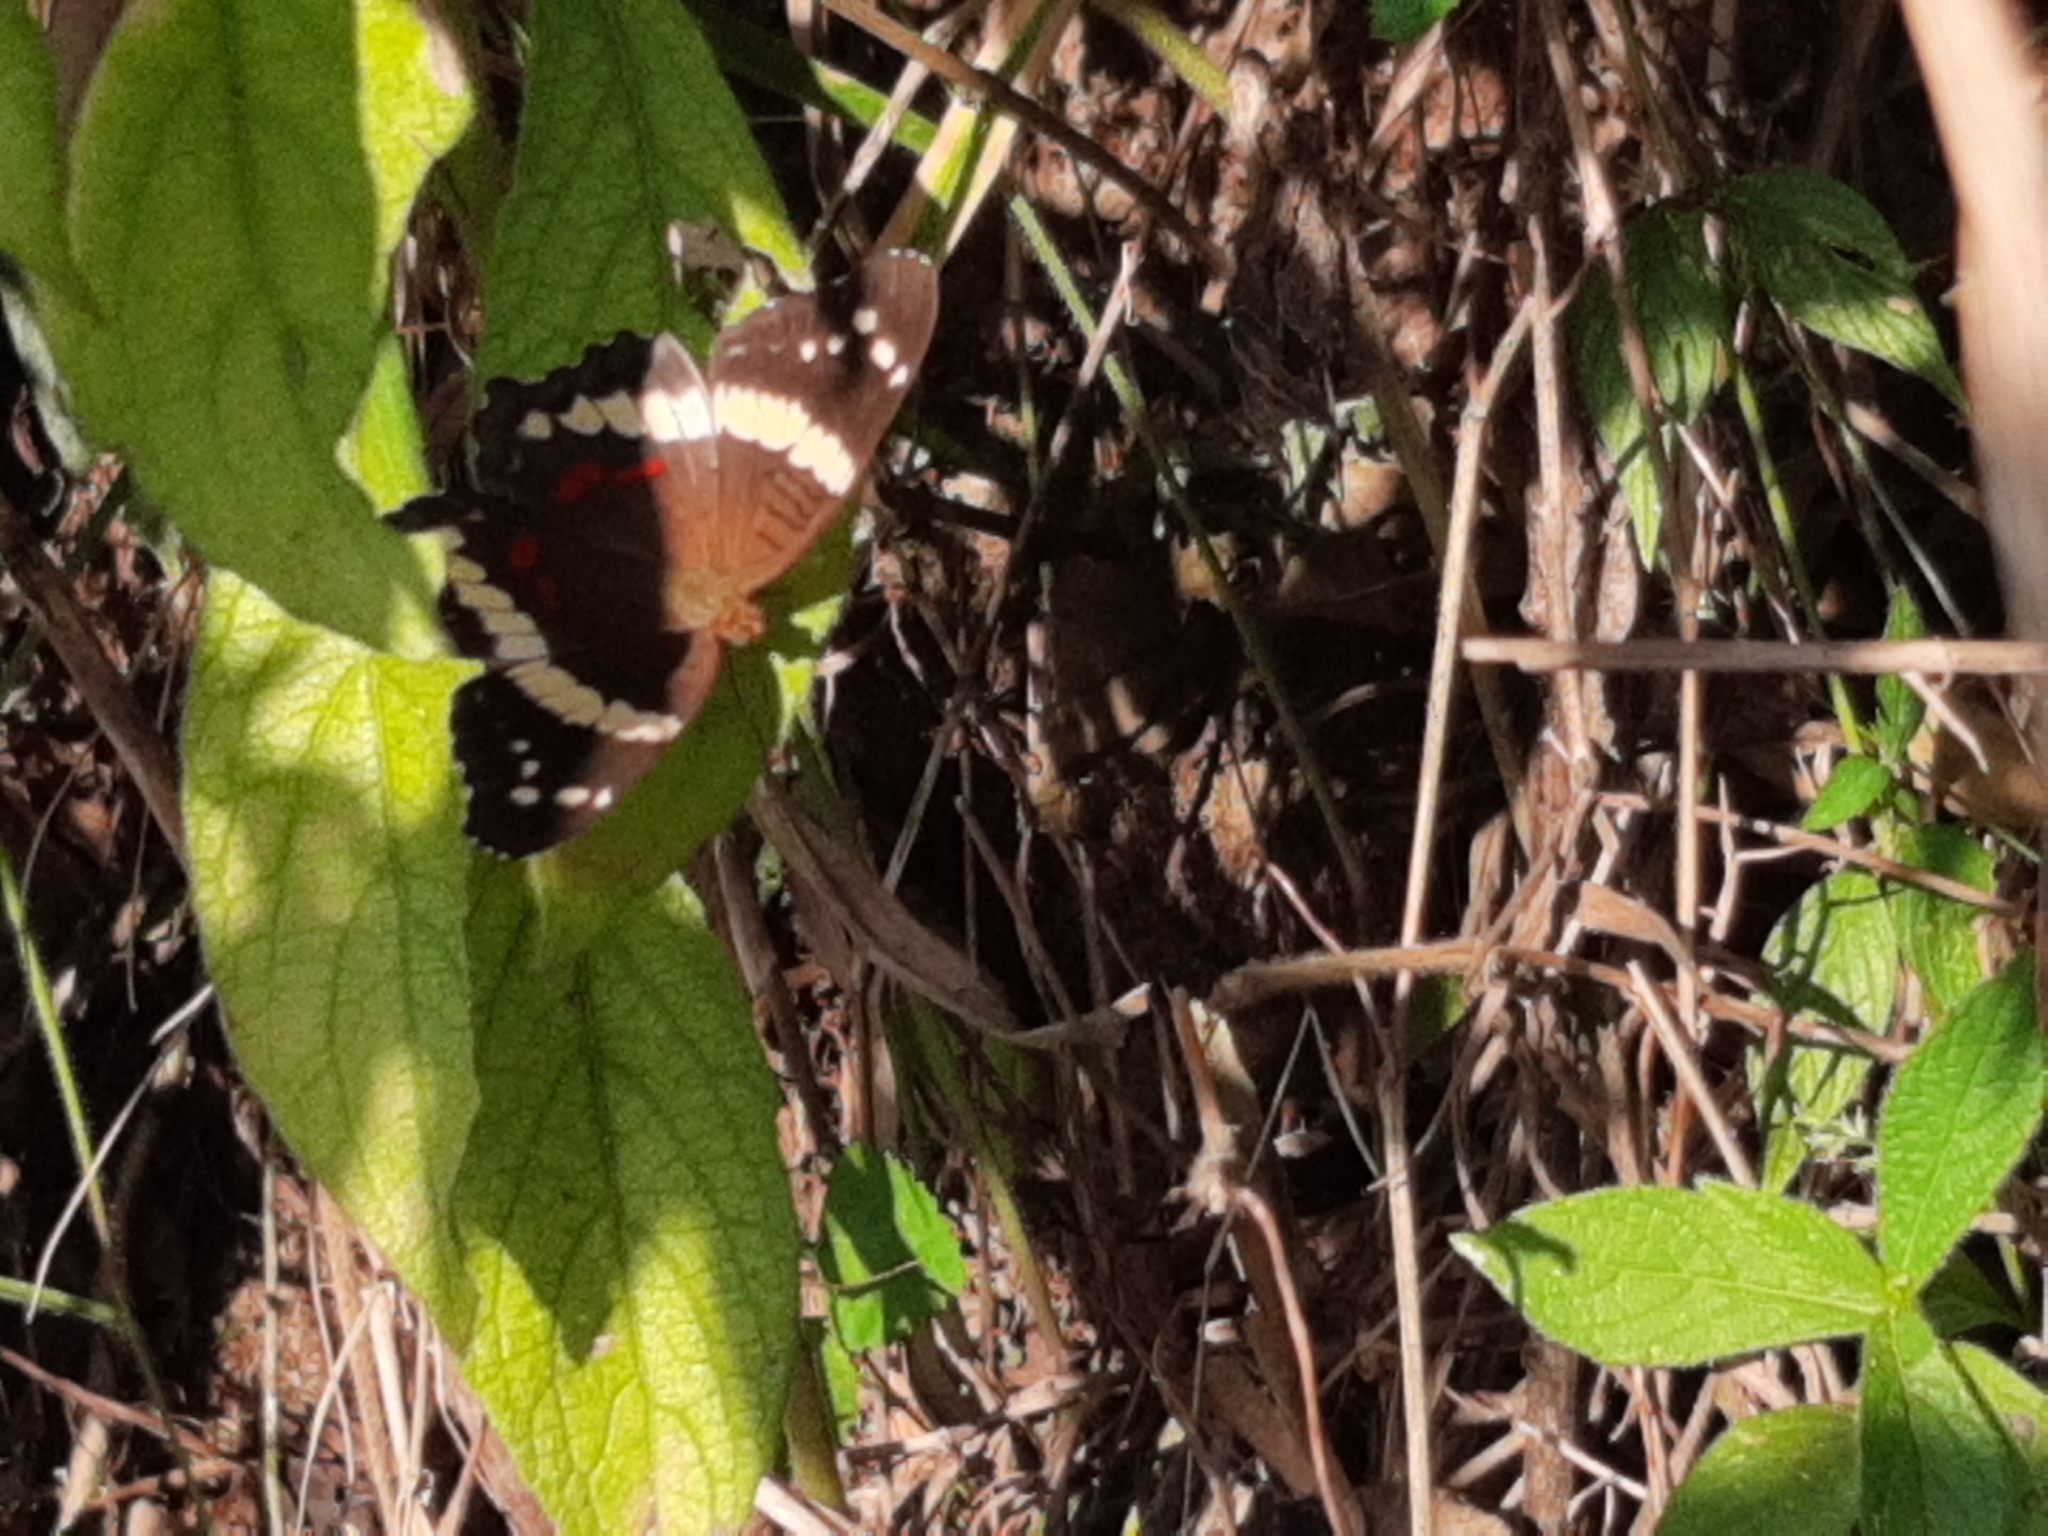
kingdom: Animalia
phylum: Arthropoda
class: Insecta
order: Lepidoptera
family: Nymphalidae
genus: Anartia
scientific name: Anartia fatima
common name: Banded peacock
